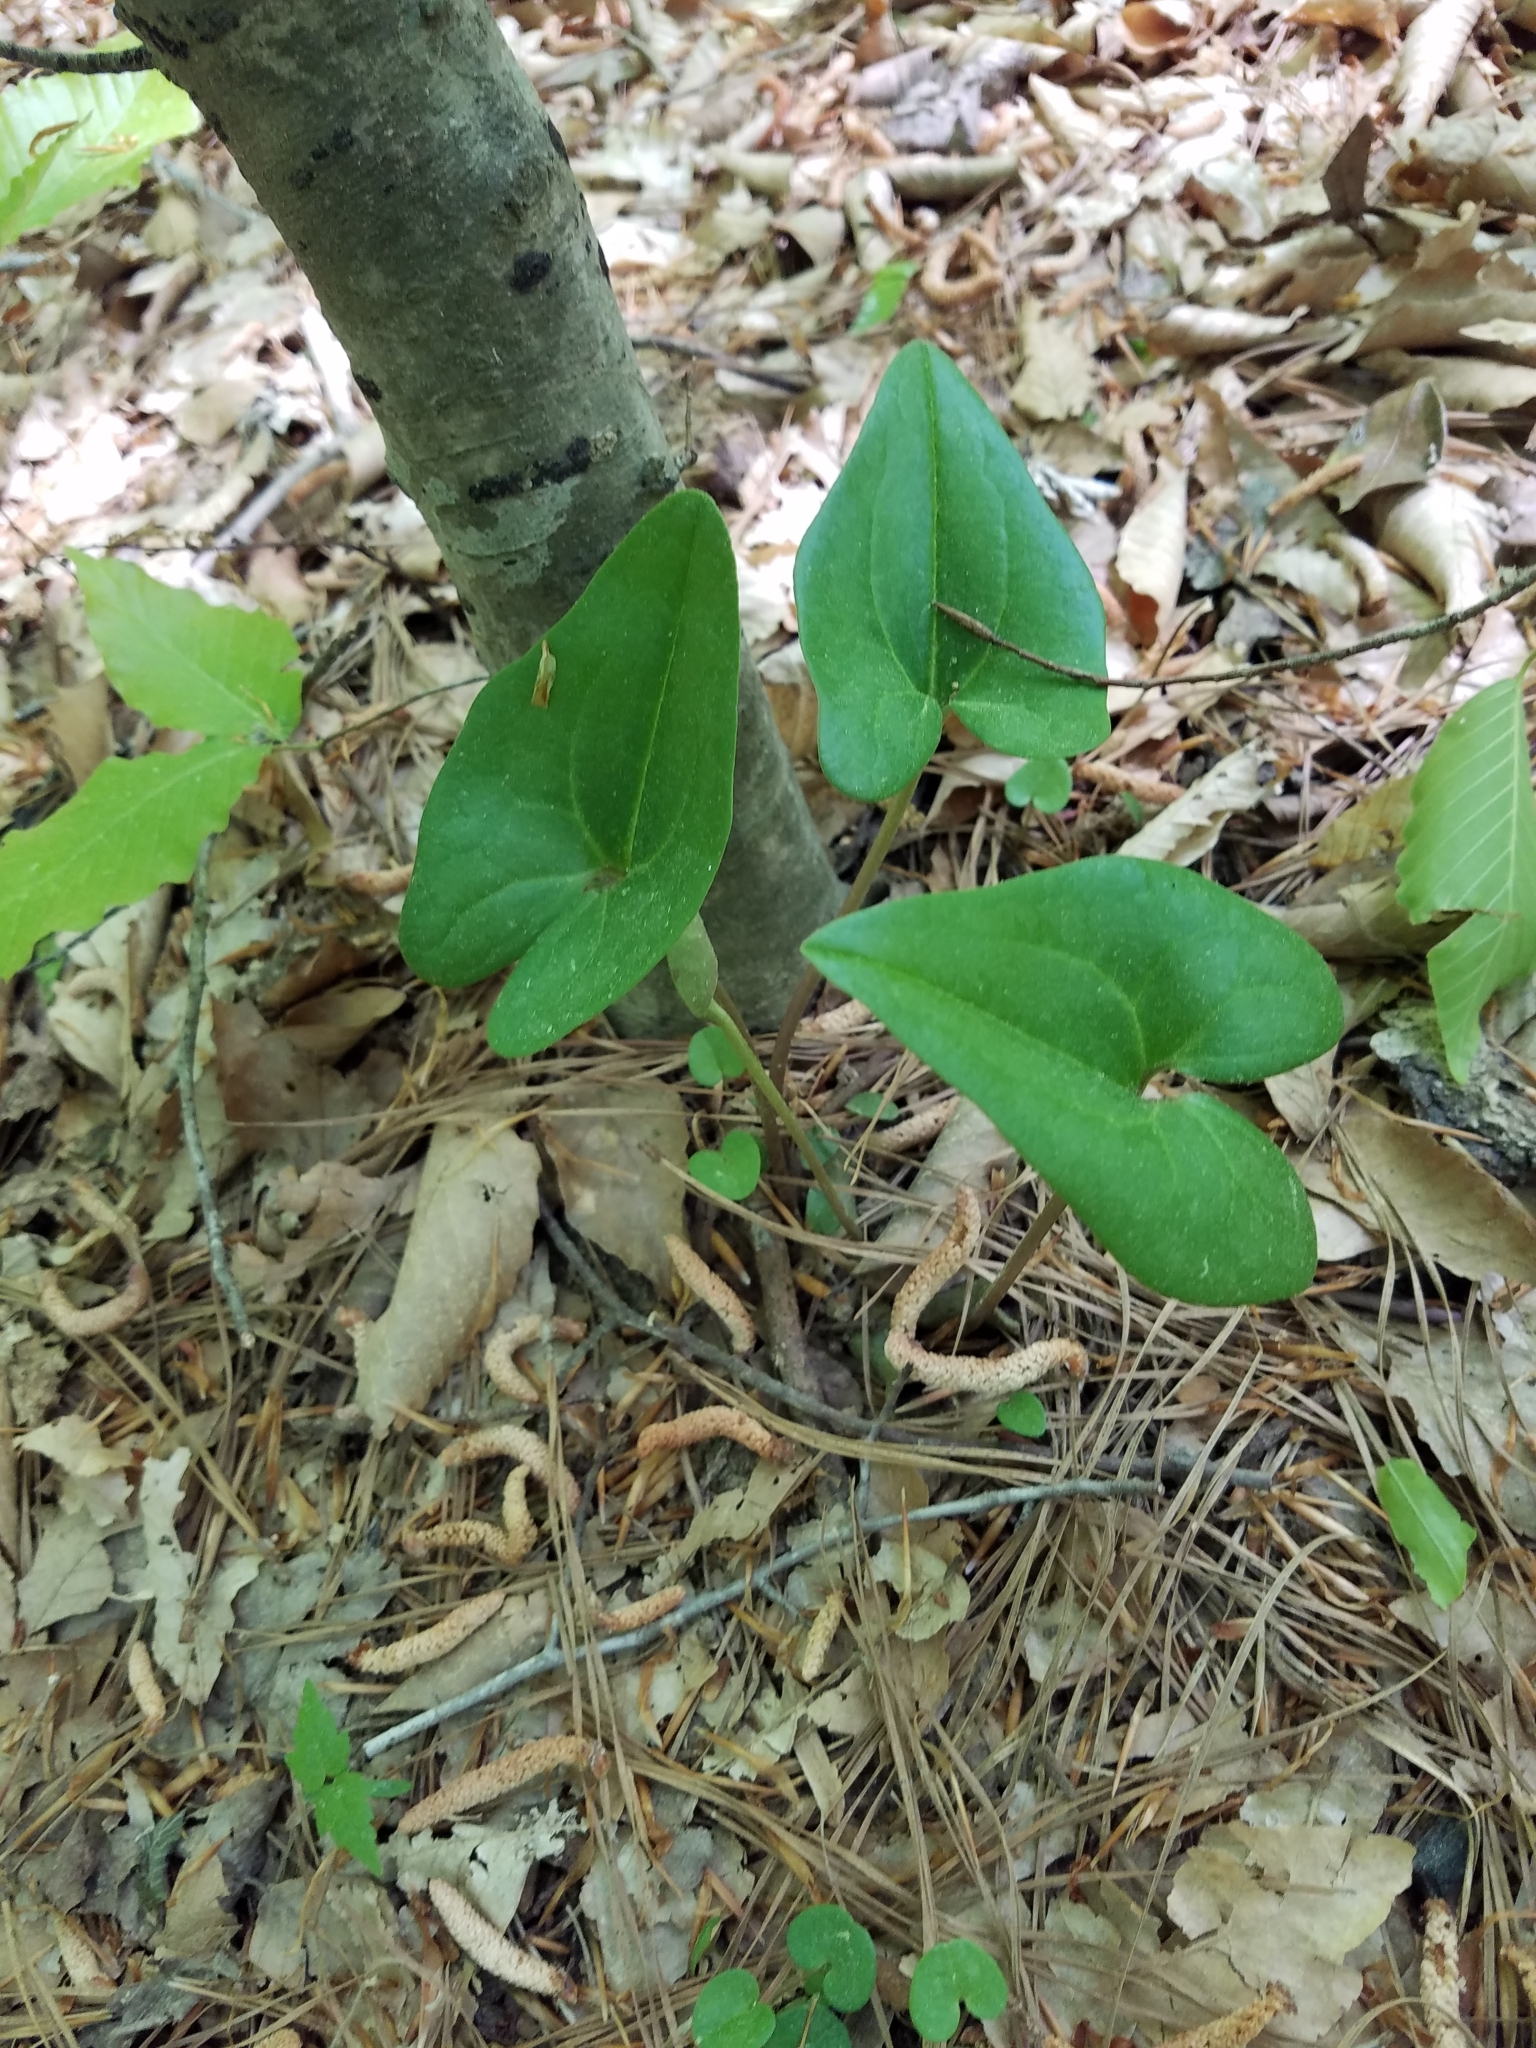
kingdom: Plantae
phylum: Tracheophyta
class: Magnoliopsida
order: Piperales
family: Aristolochiaceae
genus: Hexastylis
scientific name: Hexastylis arifolia
